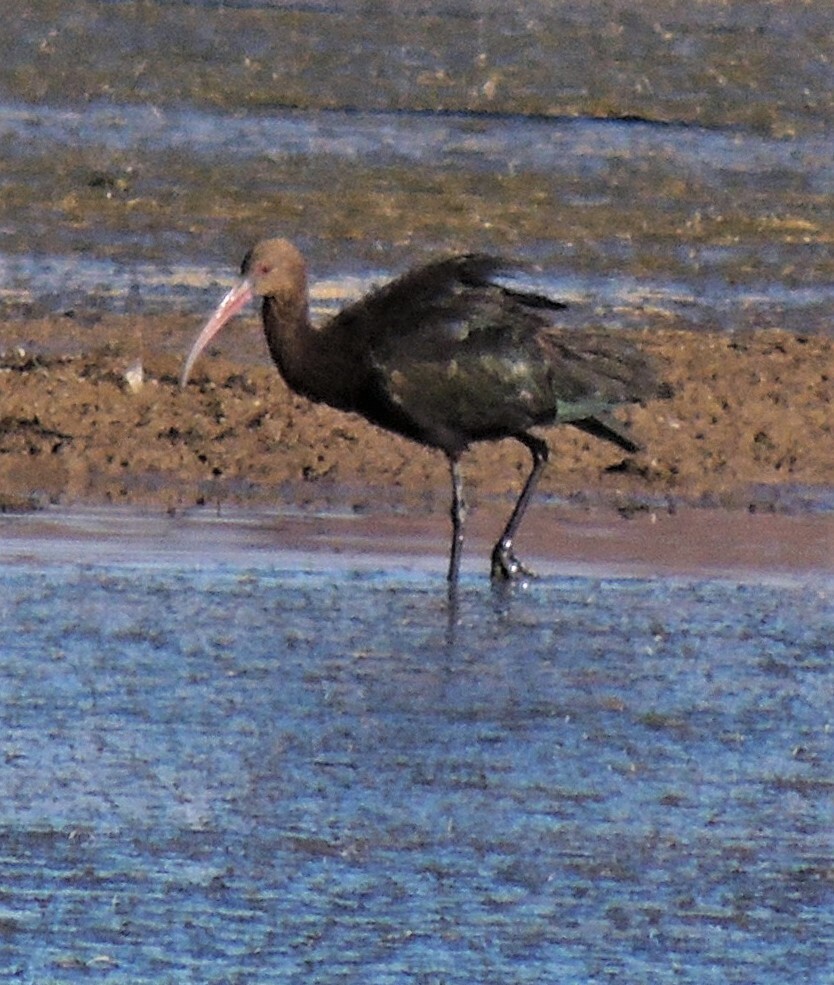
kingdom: Animalia
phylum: Chordata
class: Aves
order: Pelecaniformes
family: Threskiornithidae
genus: Plegadis
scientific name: Plegadis ridgwayi
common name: Puna ibis
